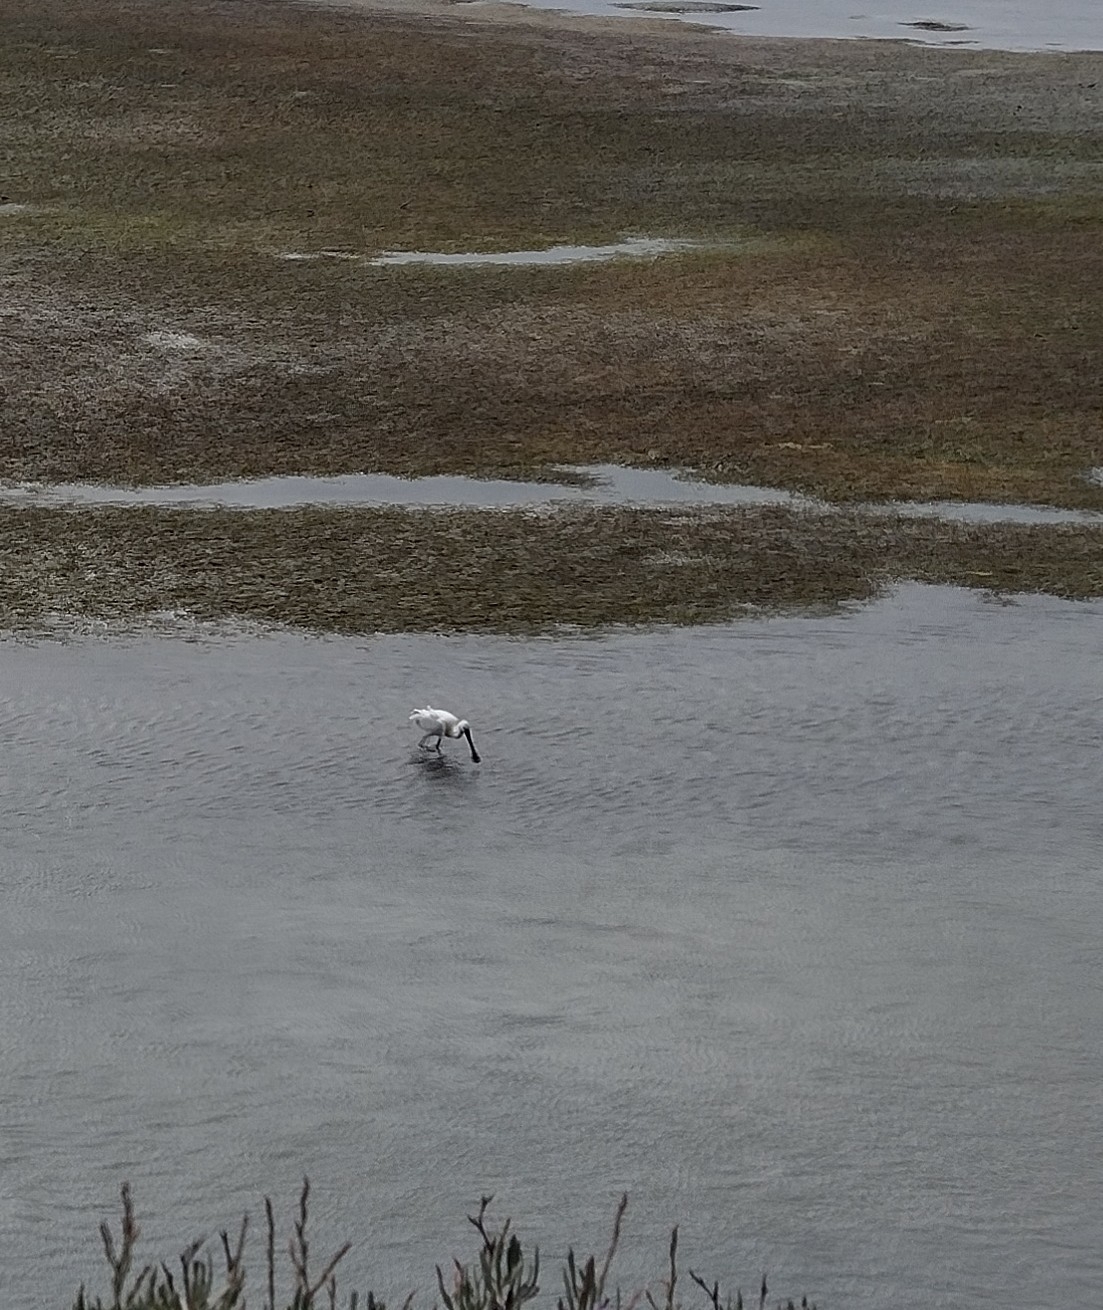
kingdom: Animalia
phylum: Chordata
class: Aves
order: Pelecaniformes
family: Threskiornithidae
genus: Platalea
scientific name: Platalea leucorodia
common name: Eurasian spoonbill
